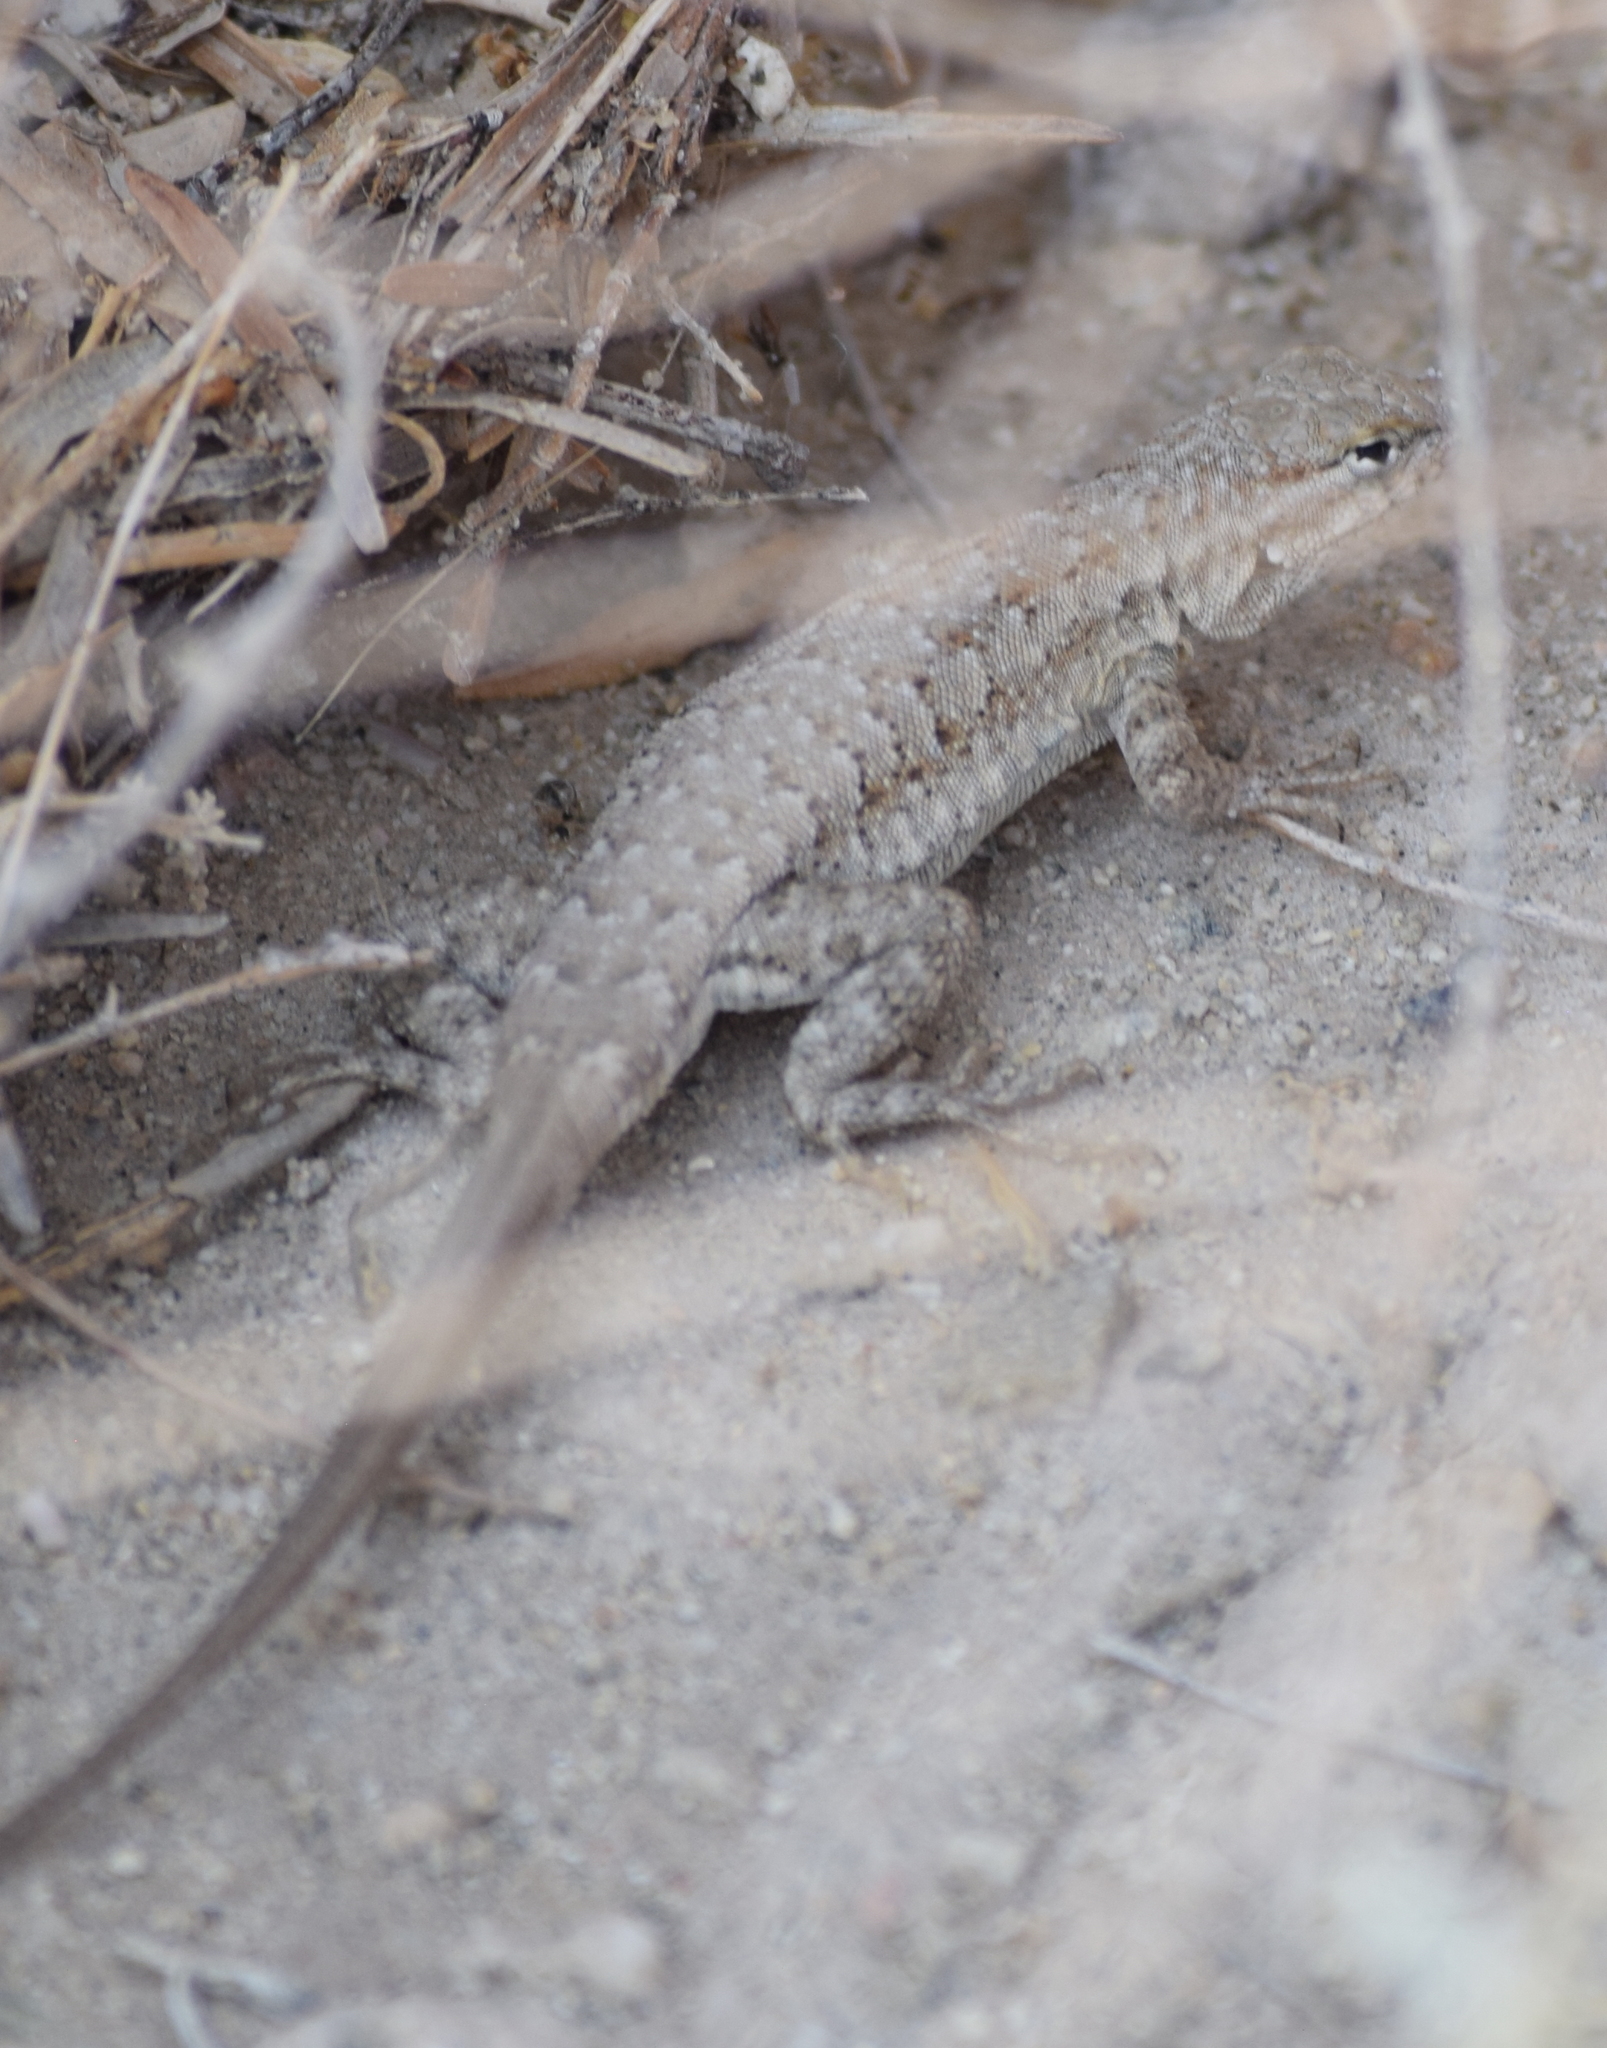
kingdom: Animalia
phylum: Chordata
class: Squamata
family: Phrynosomatidae
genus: Uta
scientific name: Uta stansburiana
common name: Side-blotched lizard
